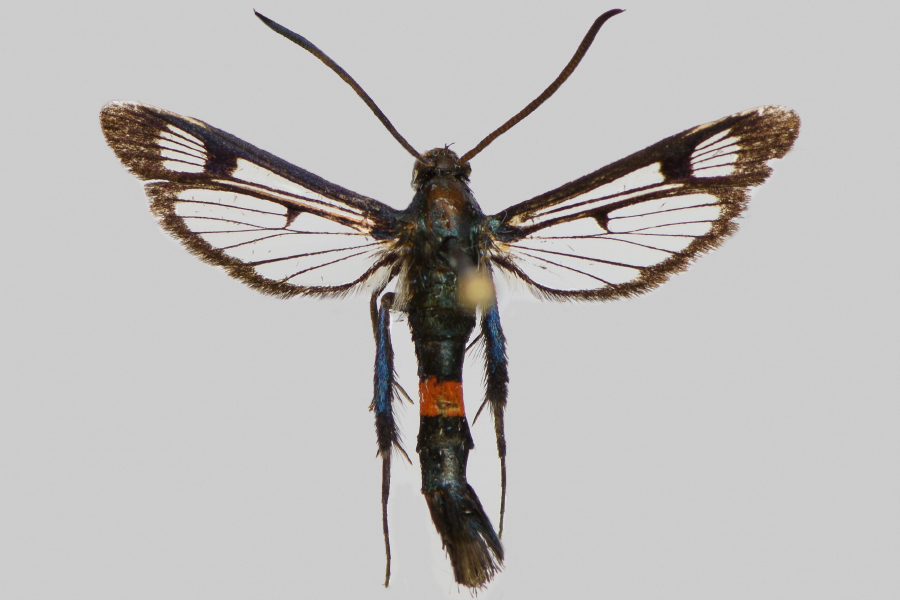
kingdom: Animalia
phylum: Arthropoda
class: Insecta
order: Lepidoptera
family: Sesiidae
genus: Synanthedon
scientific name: Synanthedon myopaeformis
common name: Red-belted clearwing
